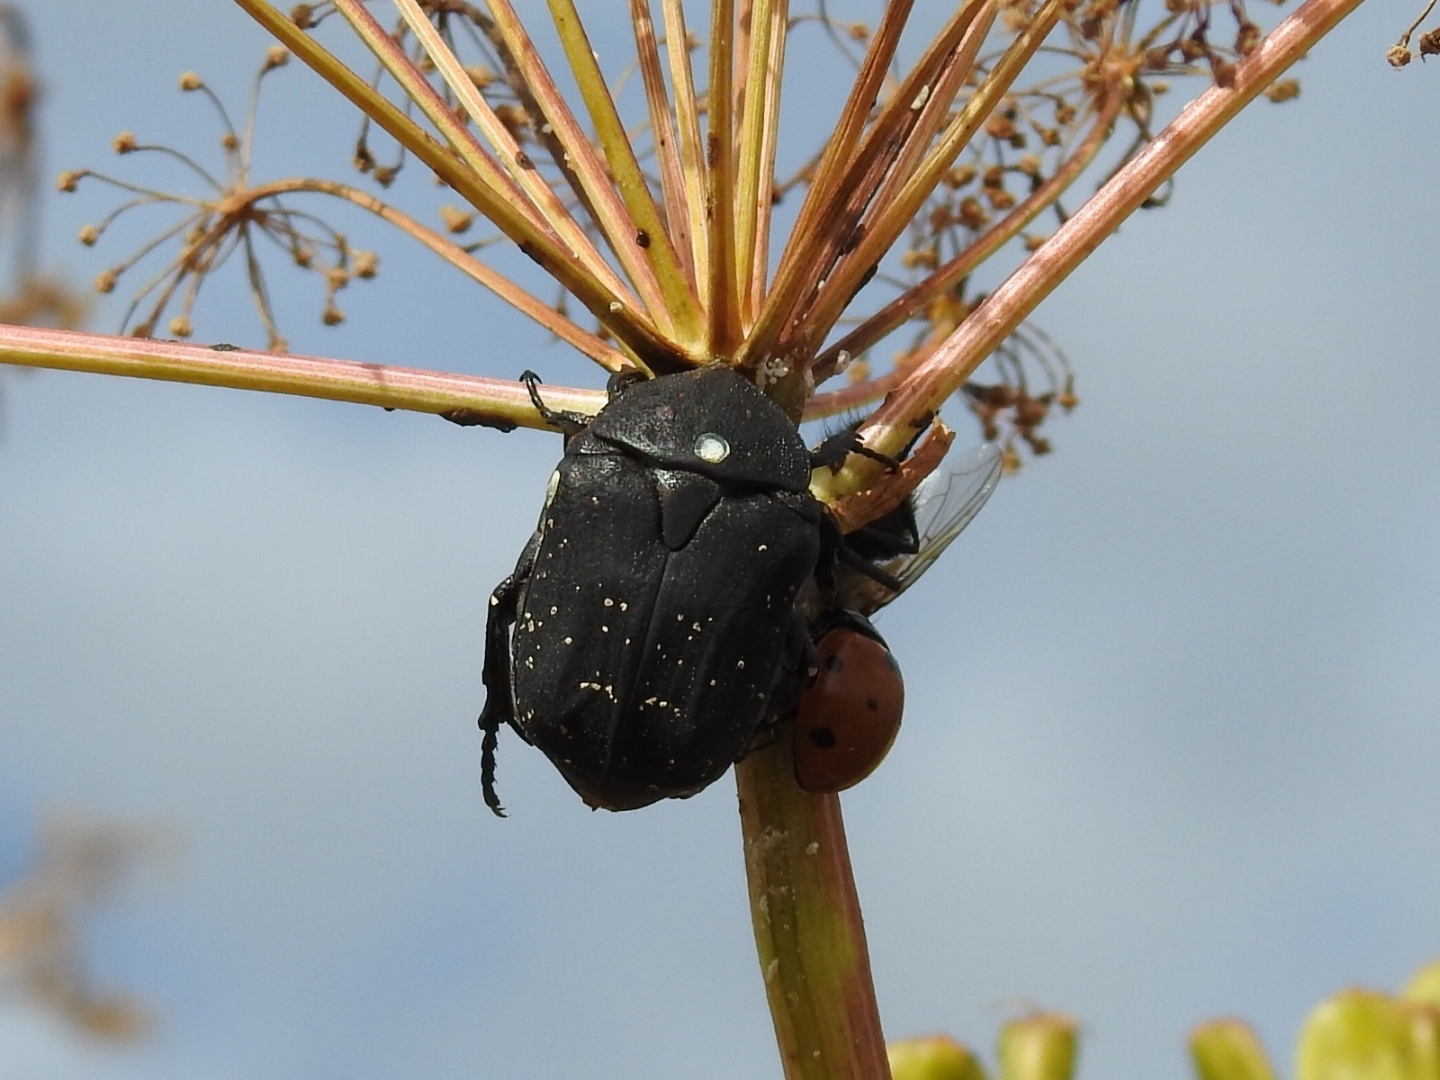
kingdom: Animalia
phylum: Arthropoda
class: Insecta
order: Coleoptera
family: Scarabaeidae
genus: Protaetia
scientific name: Protaetia morio
